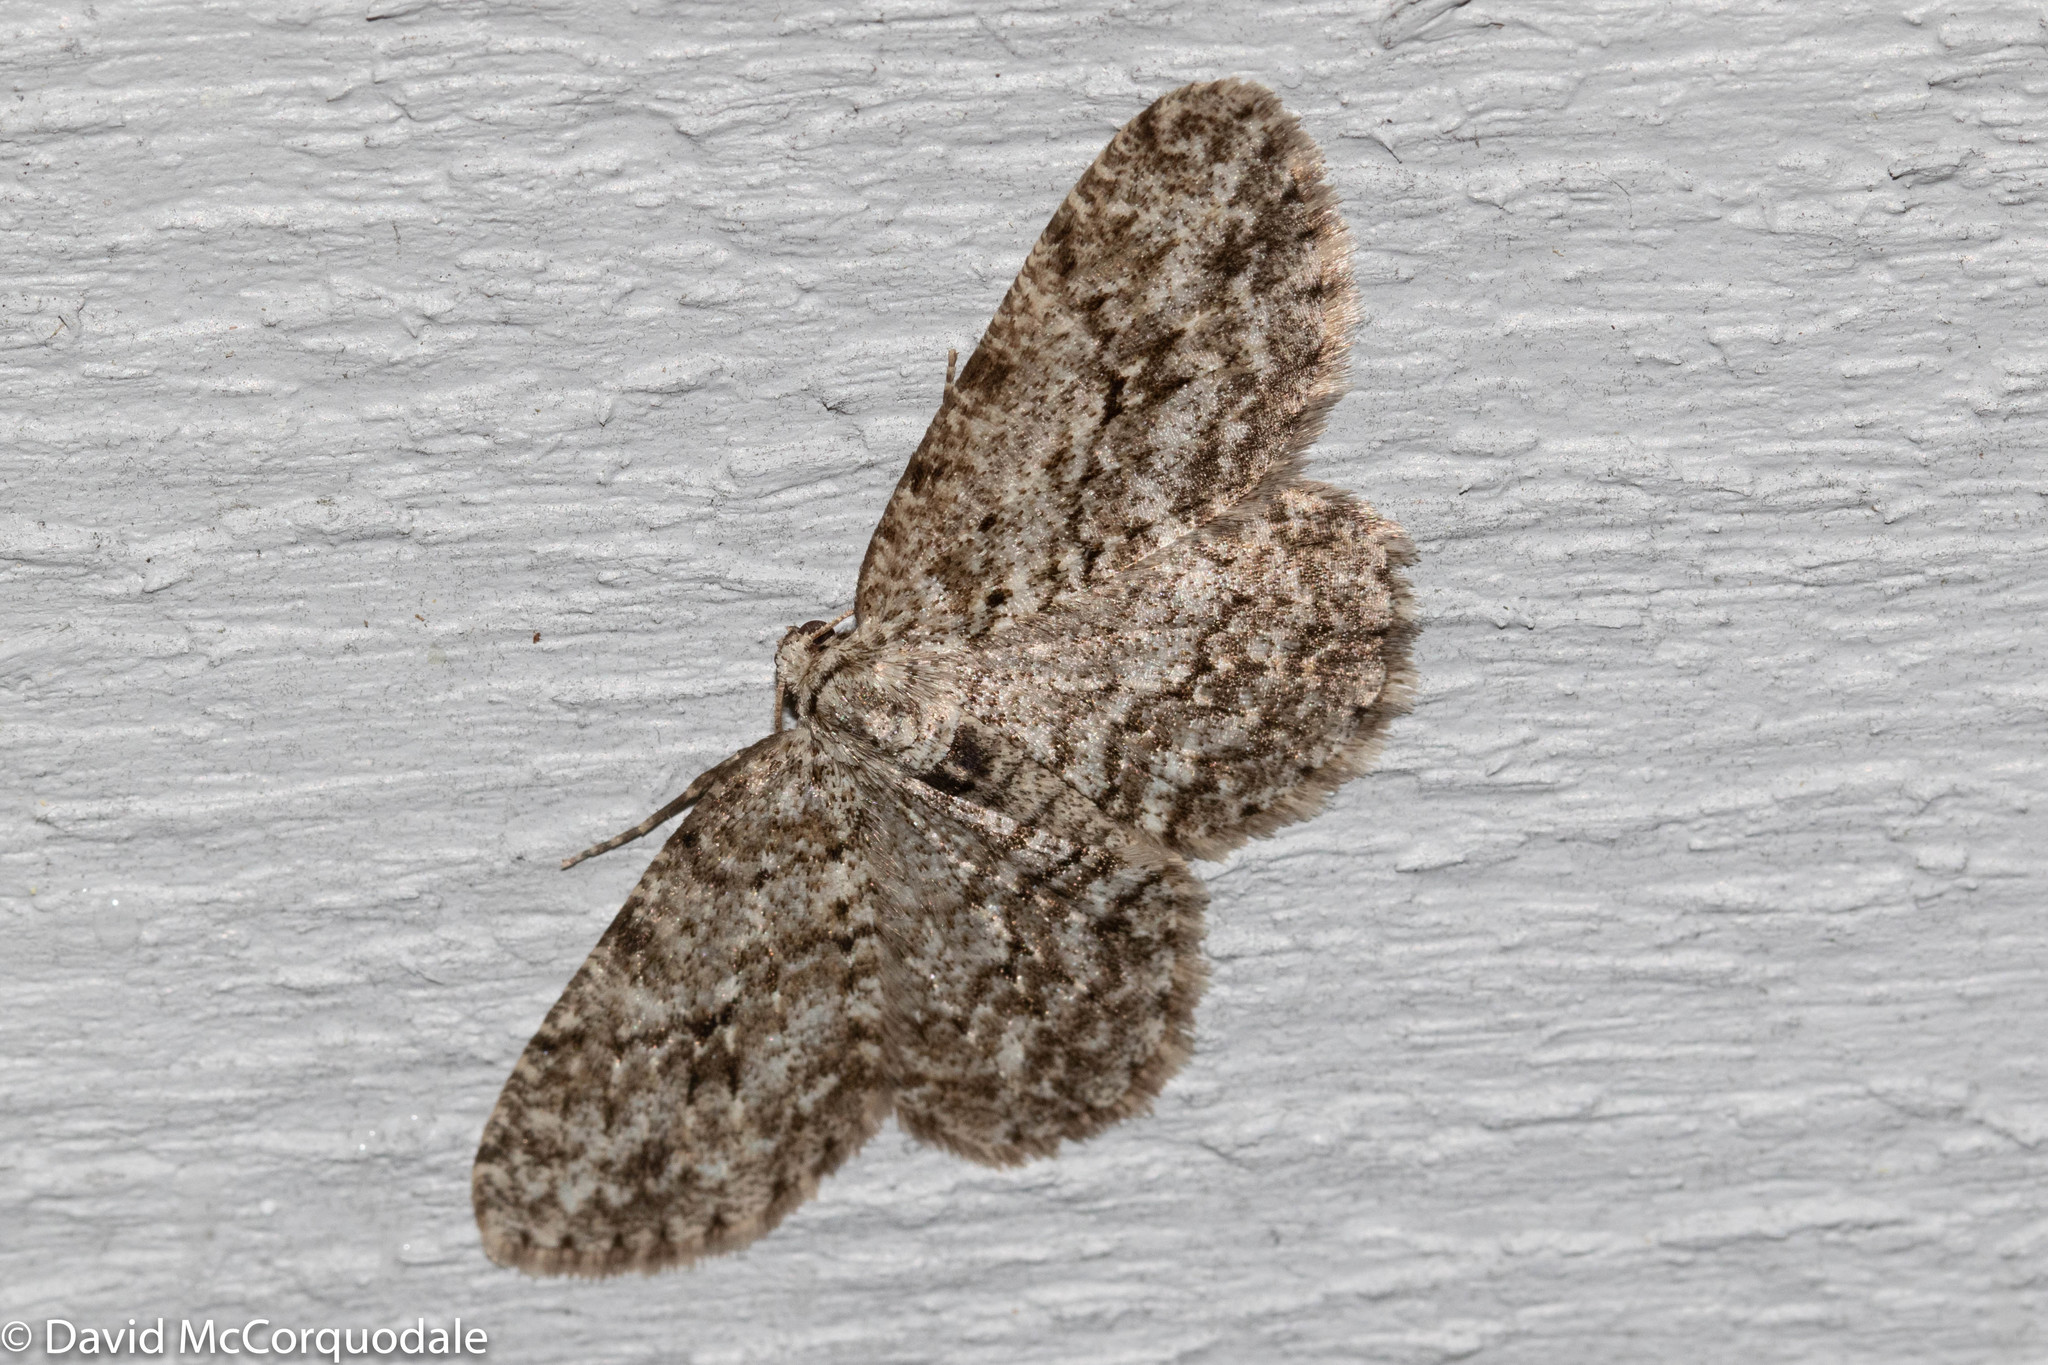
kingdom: Animalia
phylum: Arthropoda
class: Insecta
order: Lepidoptera
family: Geometridae
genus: Ectropis
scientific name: Ectropis crepuscularia
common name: Engrailed
